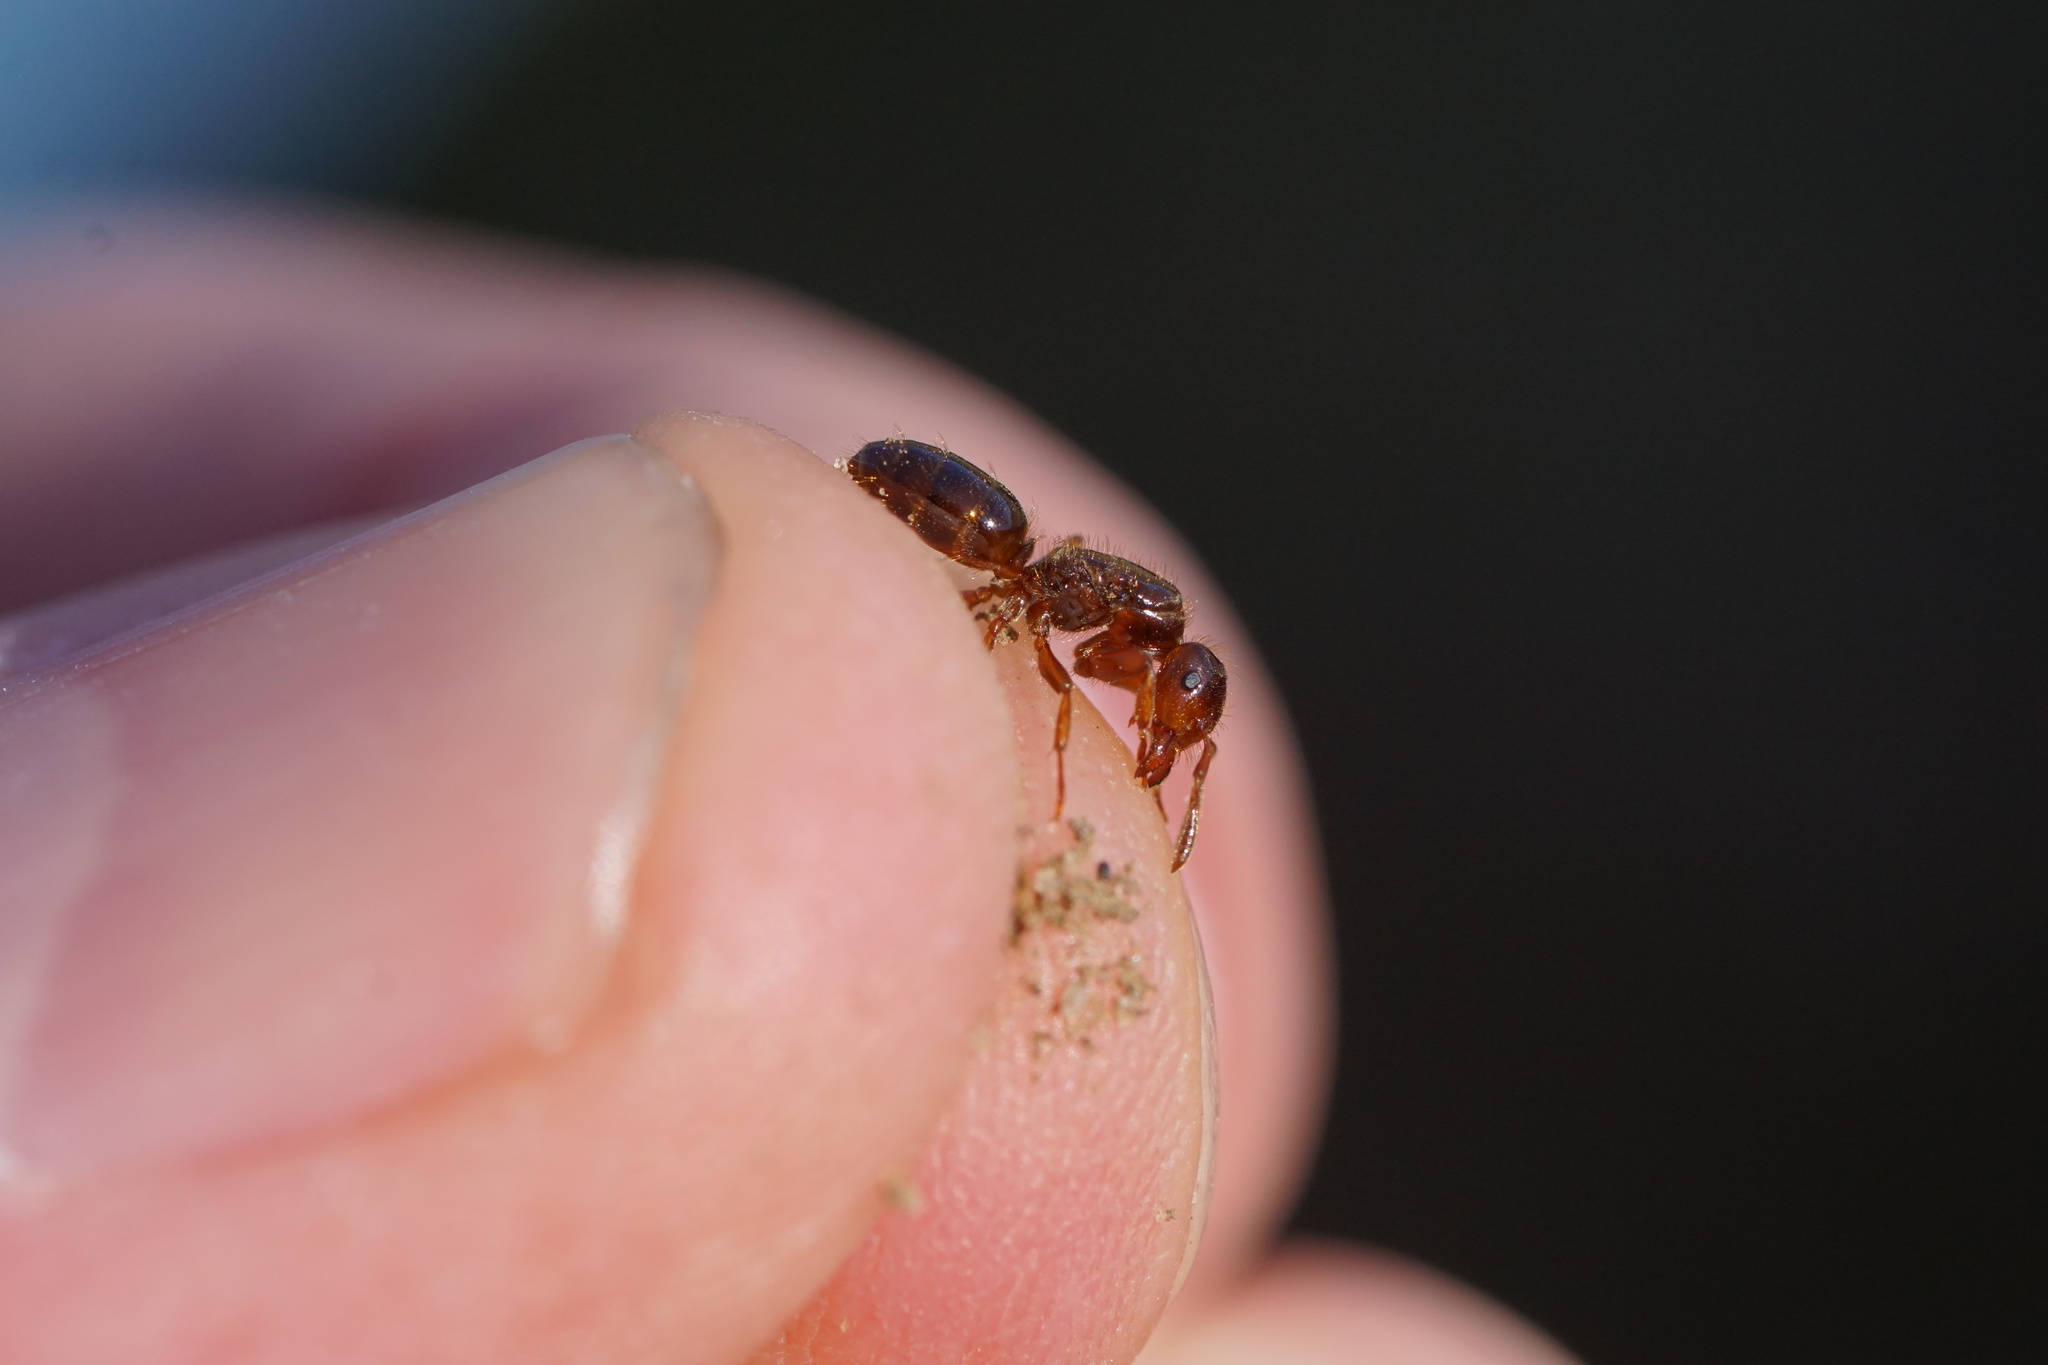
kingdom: Animalia
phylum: Arthropoda
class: Insecta
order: Hymenoptera
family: Formicidae
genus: Lasius
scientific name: Lasius claviger
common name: Common citronella ant
